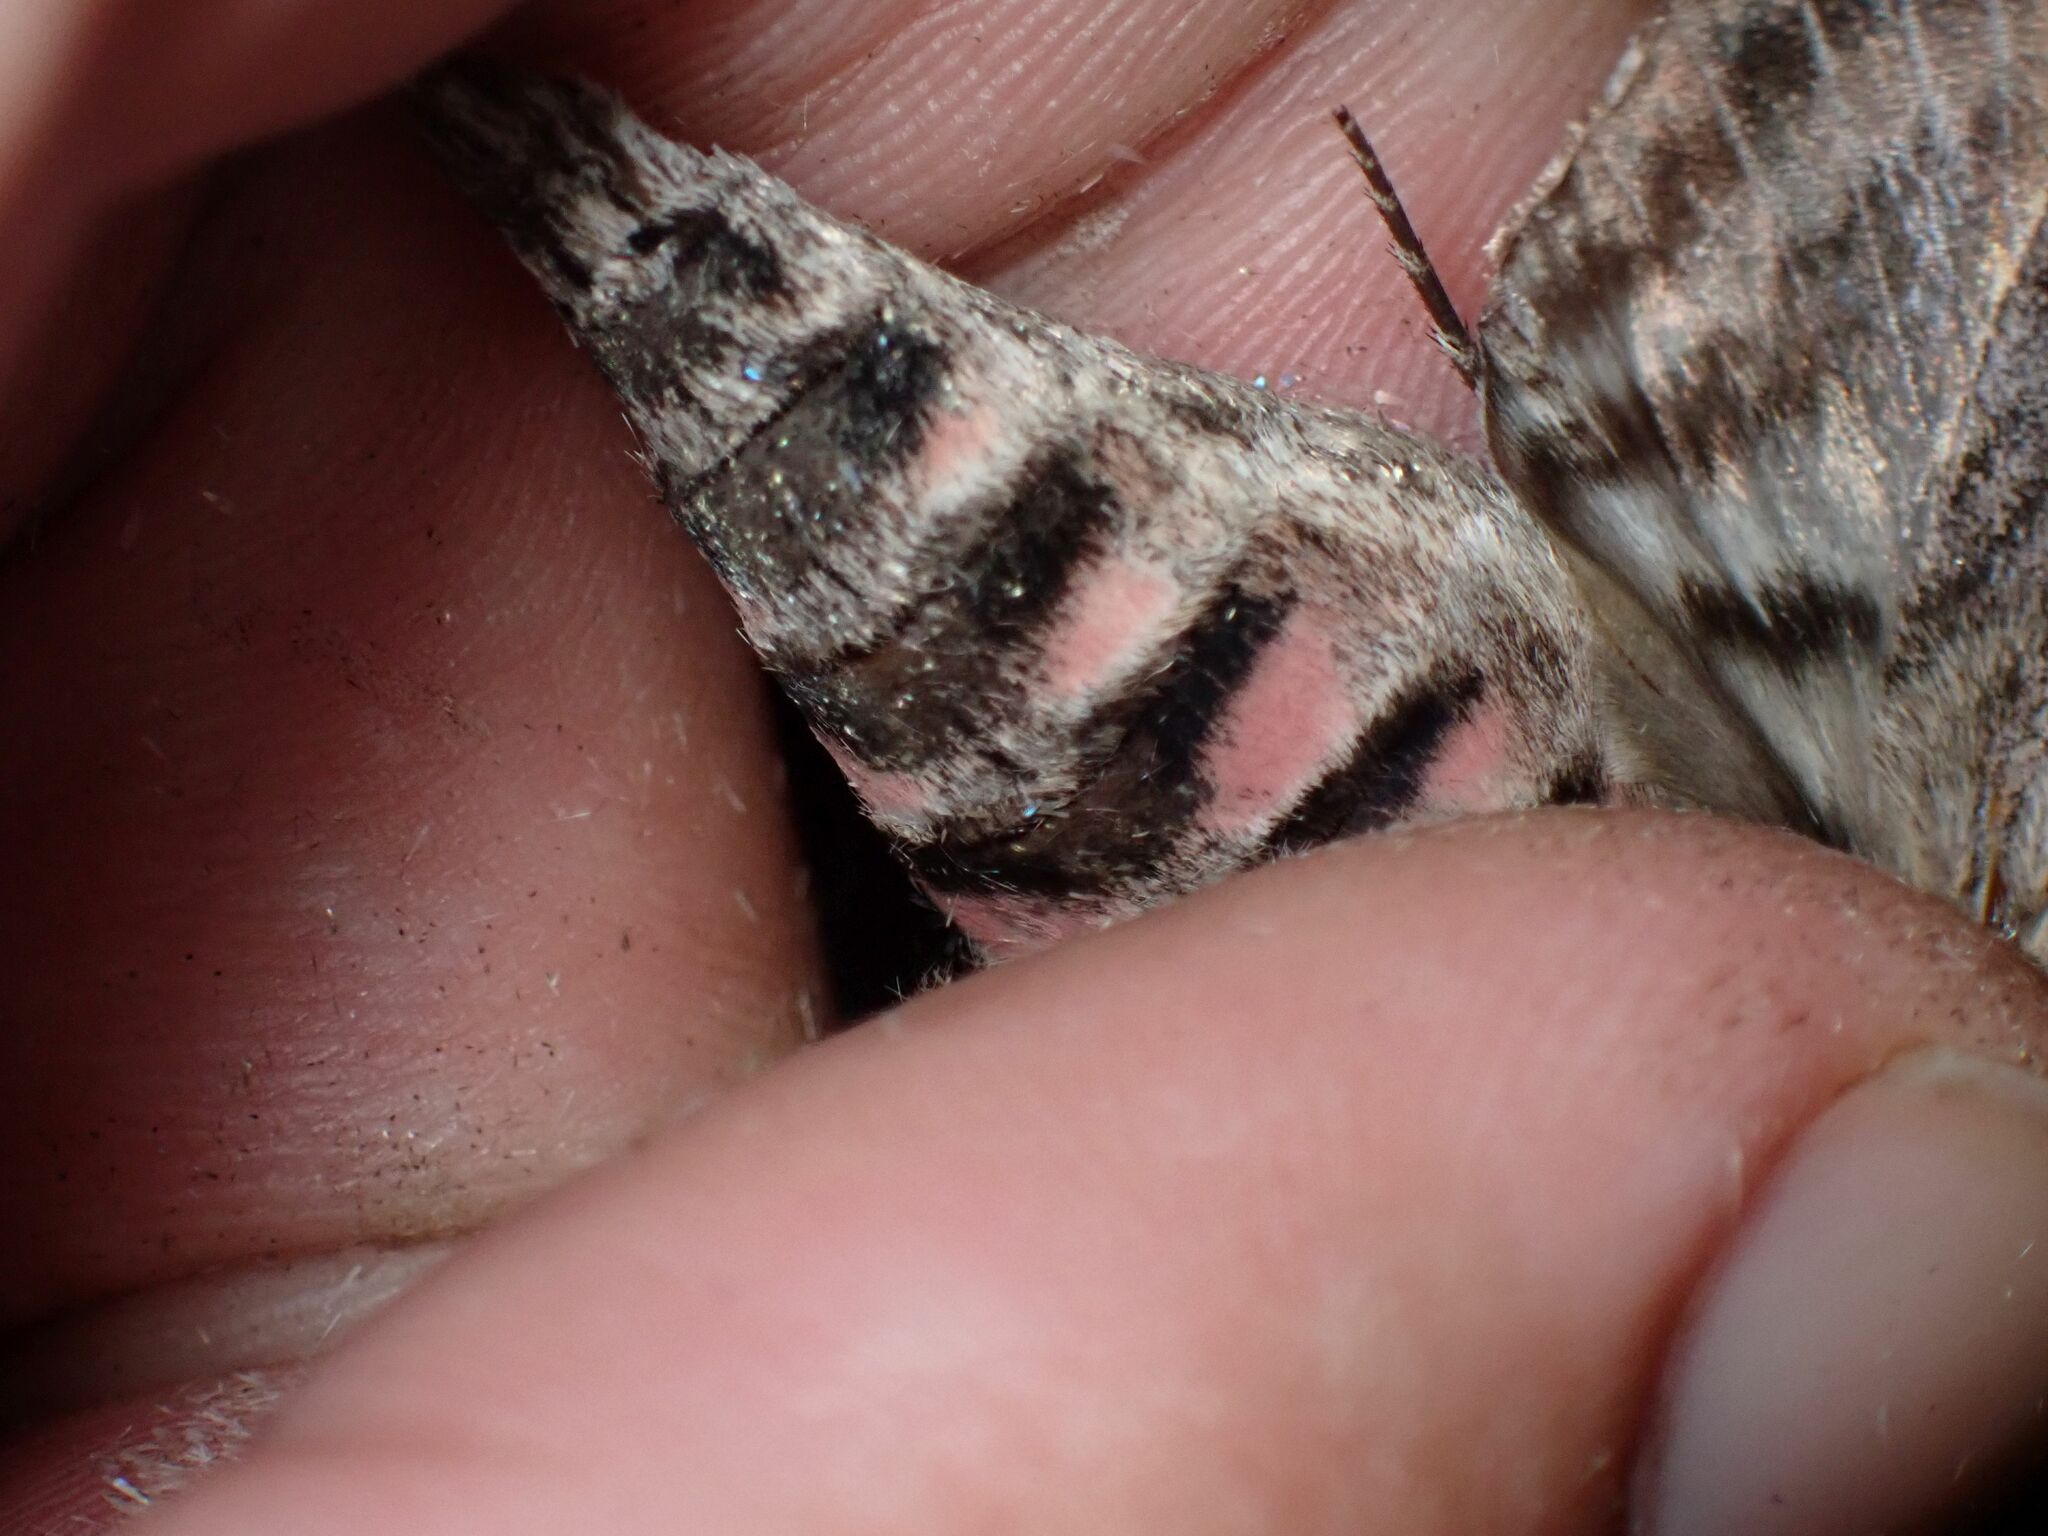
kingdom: Animalia
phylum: Arthropoda
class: Insecta
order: Lepidoptera
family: Sphingidae
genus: Agrius
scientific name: Agrius convolvuli
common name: Convolvulus hawkmoth
